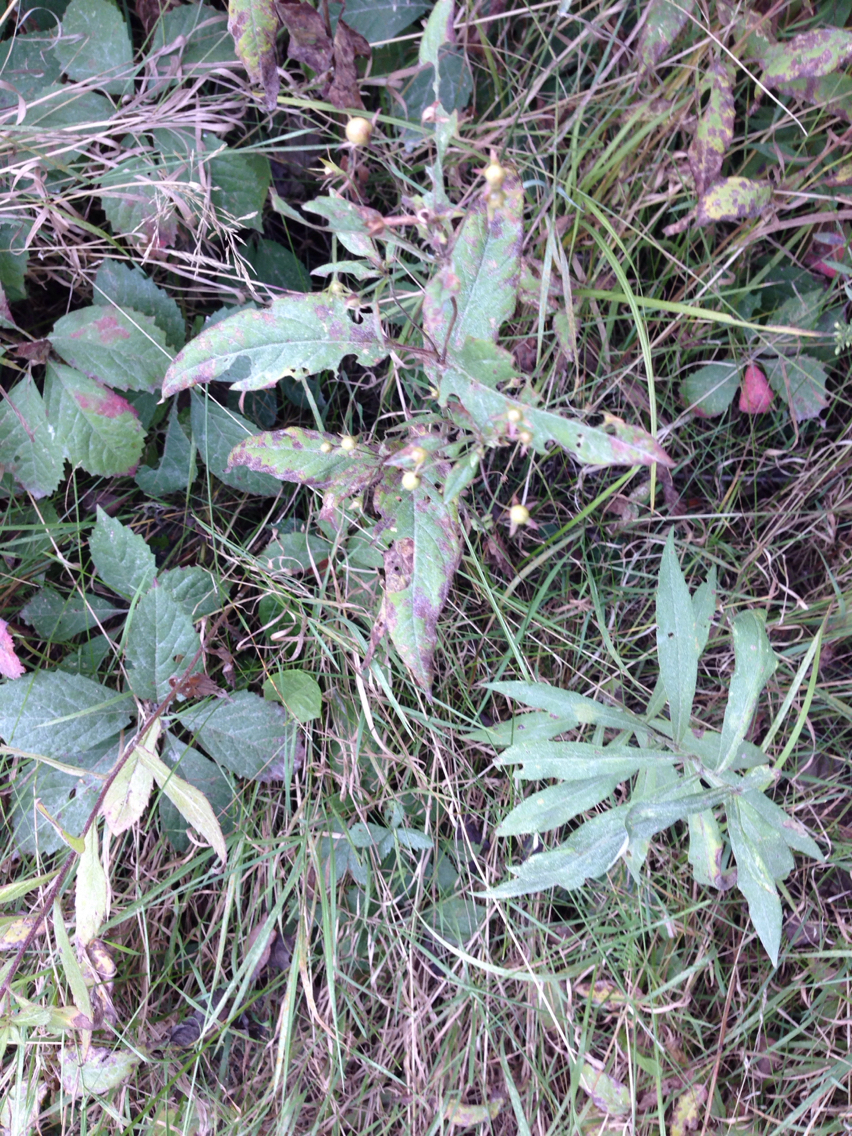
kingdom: Plantae
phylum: Tracheophyta
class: Magnoliopsida
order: Ericales
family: Primulaceae
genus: Lysimachia
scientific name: Lysimachia ciliata
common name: Fringed loosestrife
